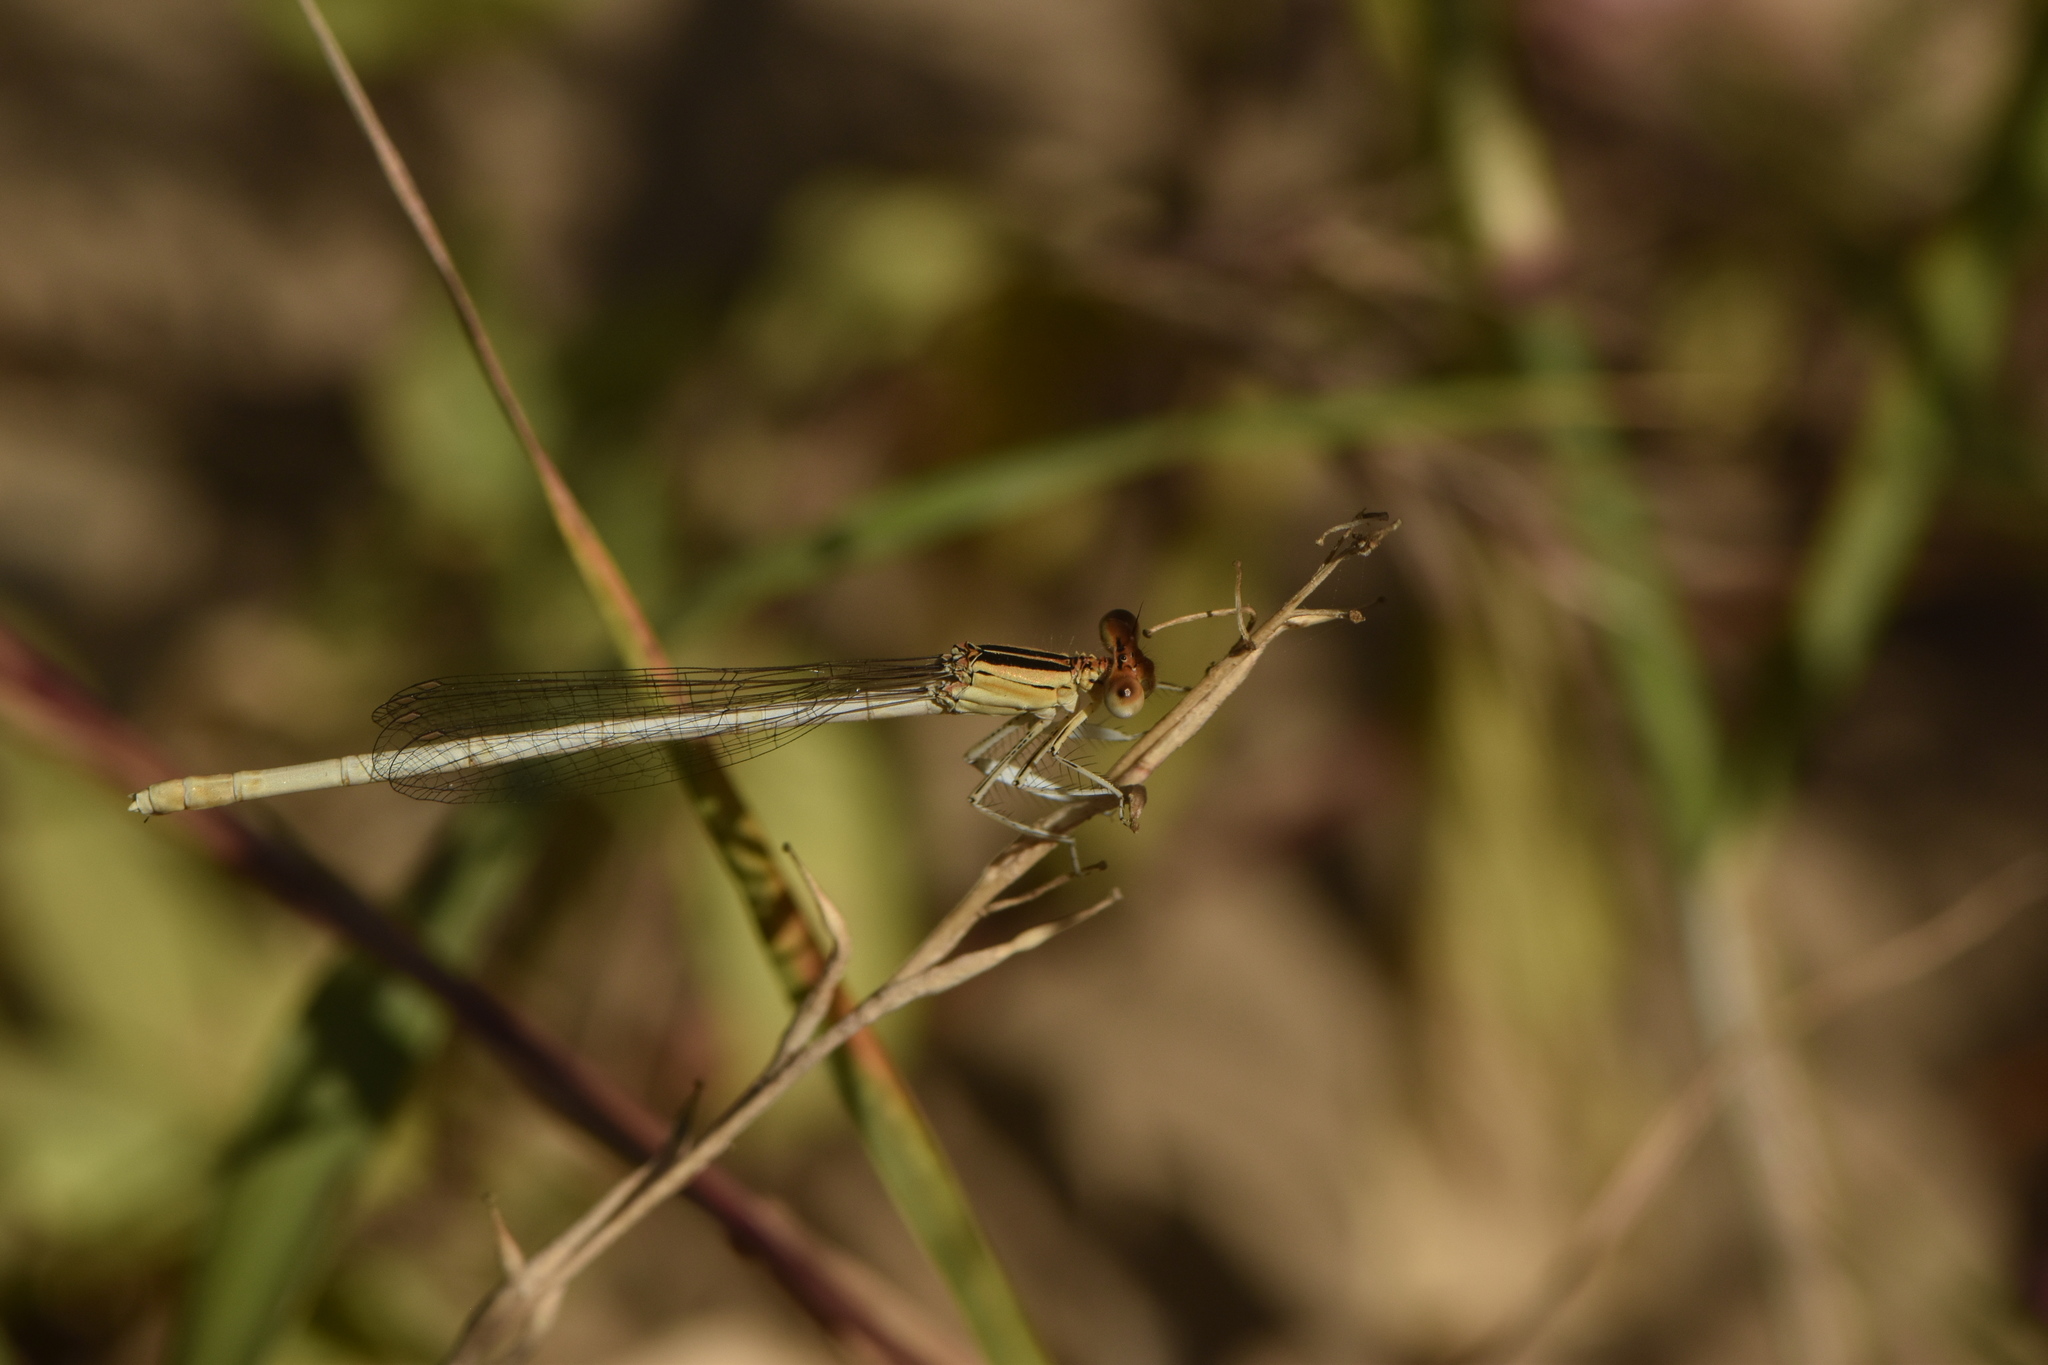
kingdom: Animalia
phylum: Arthropoda
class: Insecta
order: Odonata
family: Platycnemididae
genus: Platycnemis
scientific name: Platycnemis latipes
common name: White featherleg
